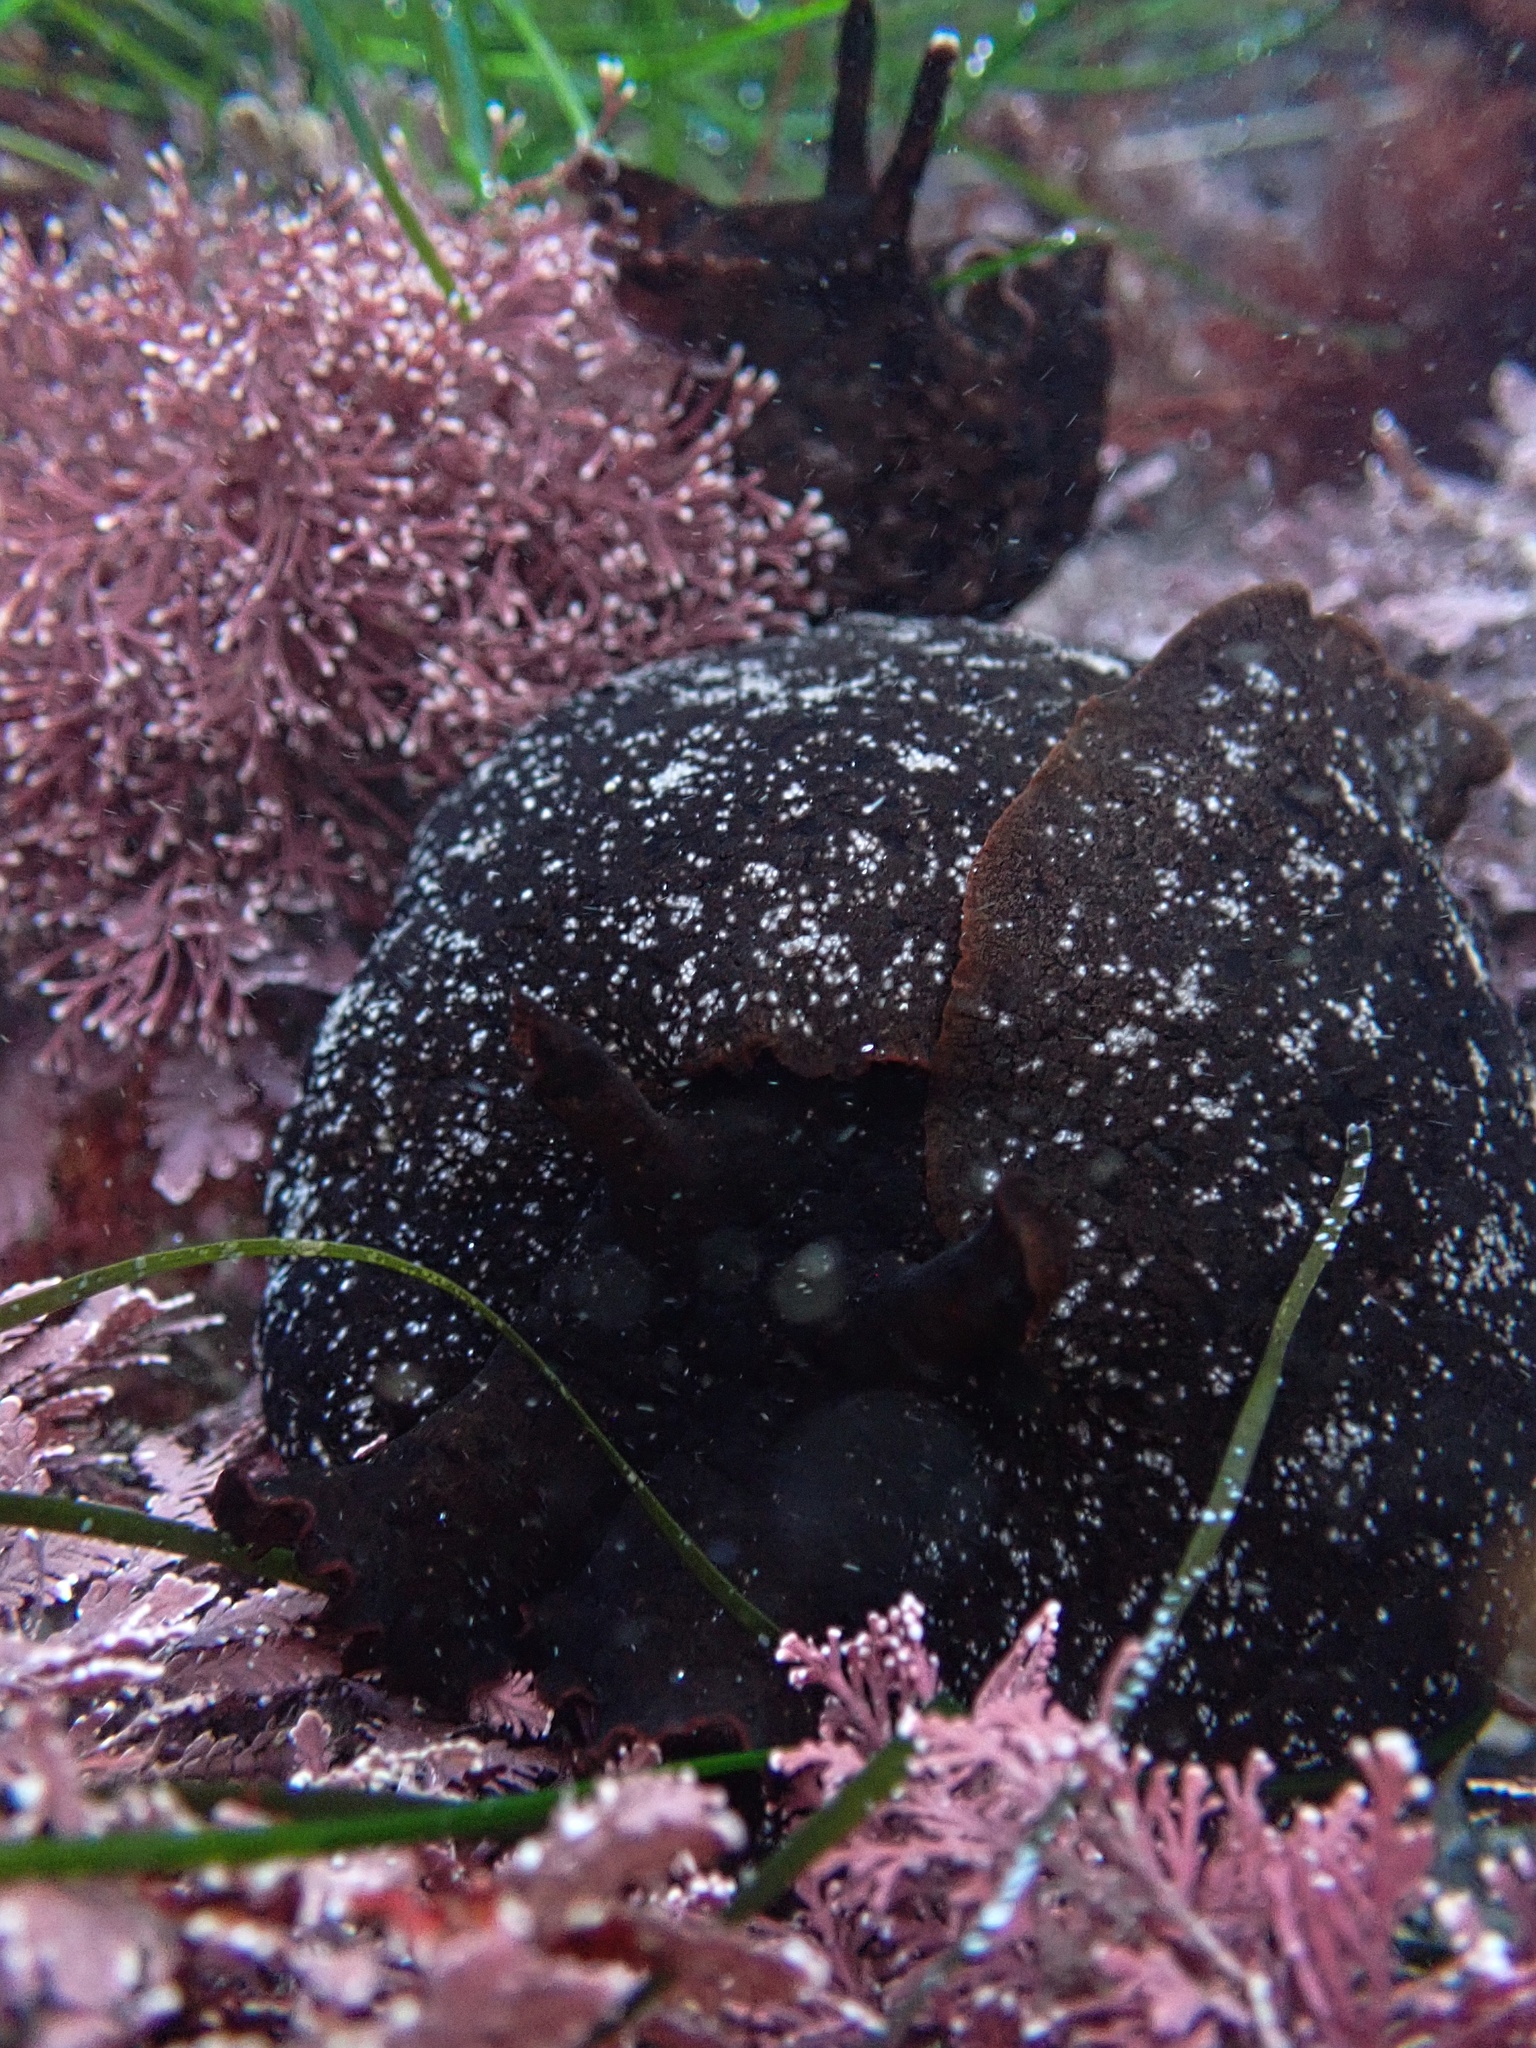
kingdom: Animalia
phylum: Mollusca
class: Gastropoda
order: Aplysiida
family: Aplysiidae
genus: Aplysia
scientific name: Aplysia vaccaria
